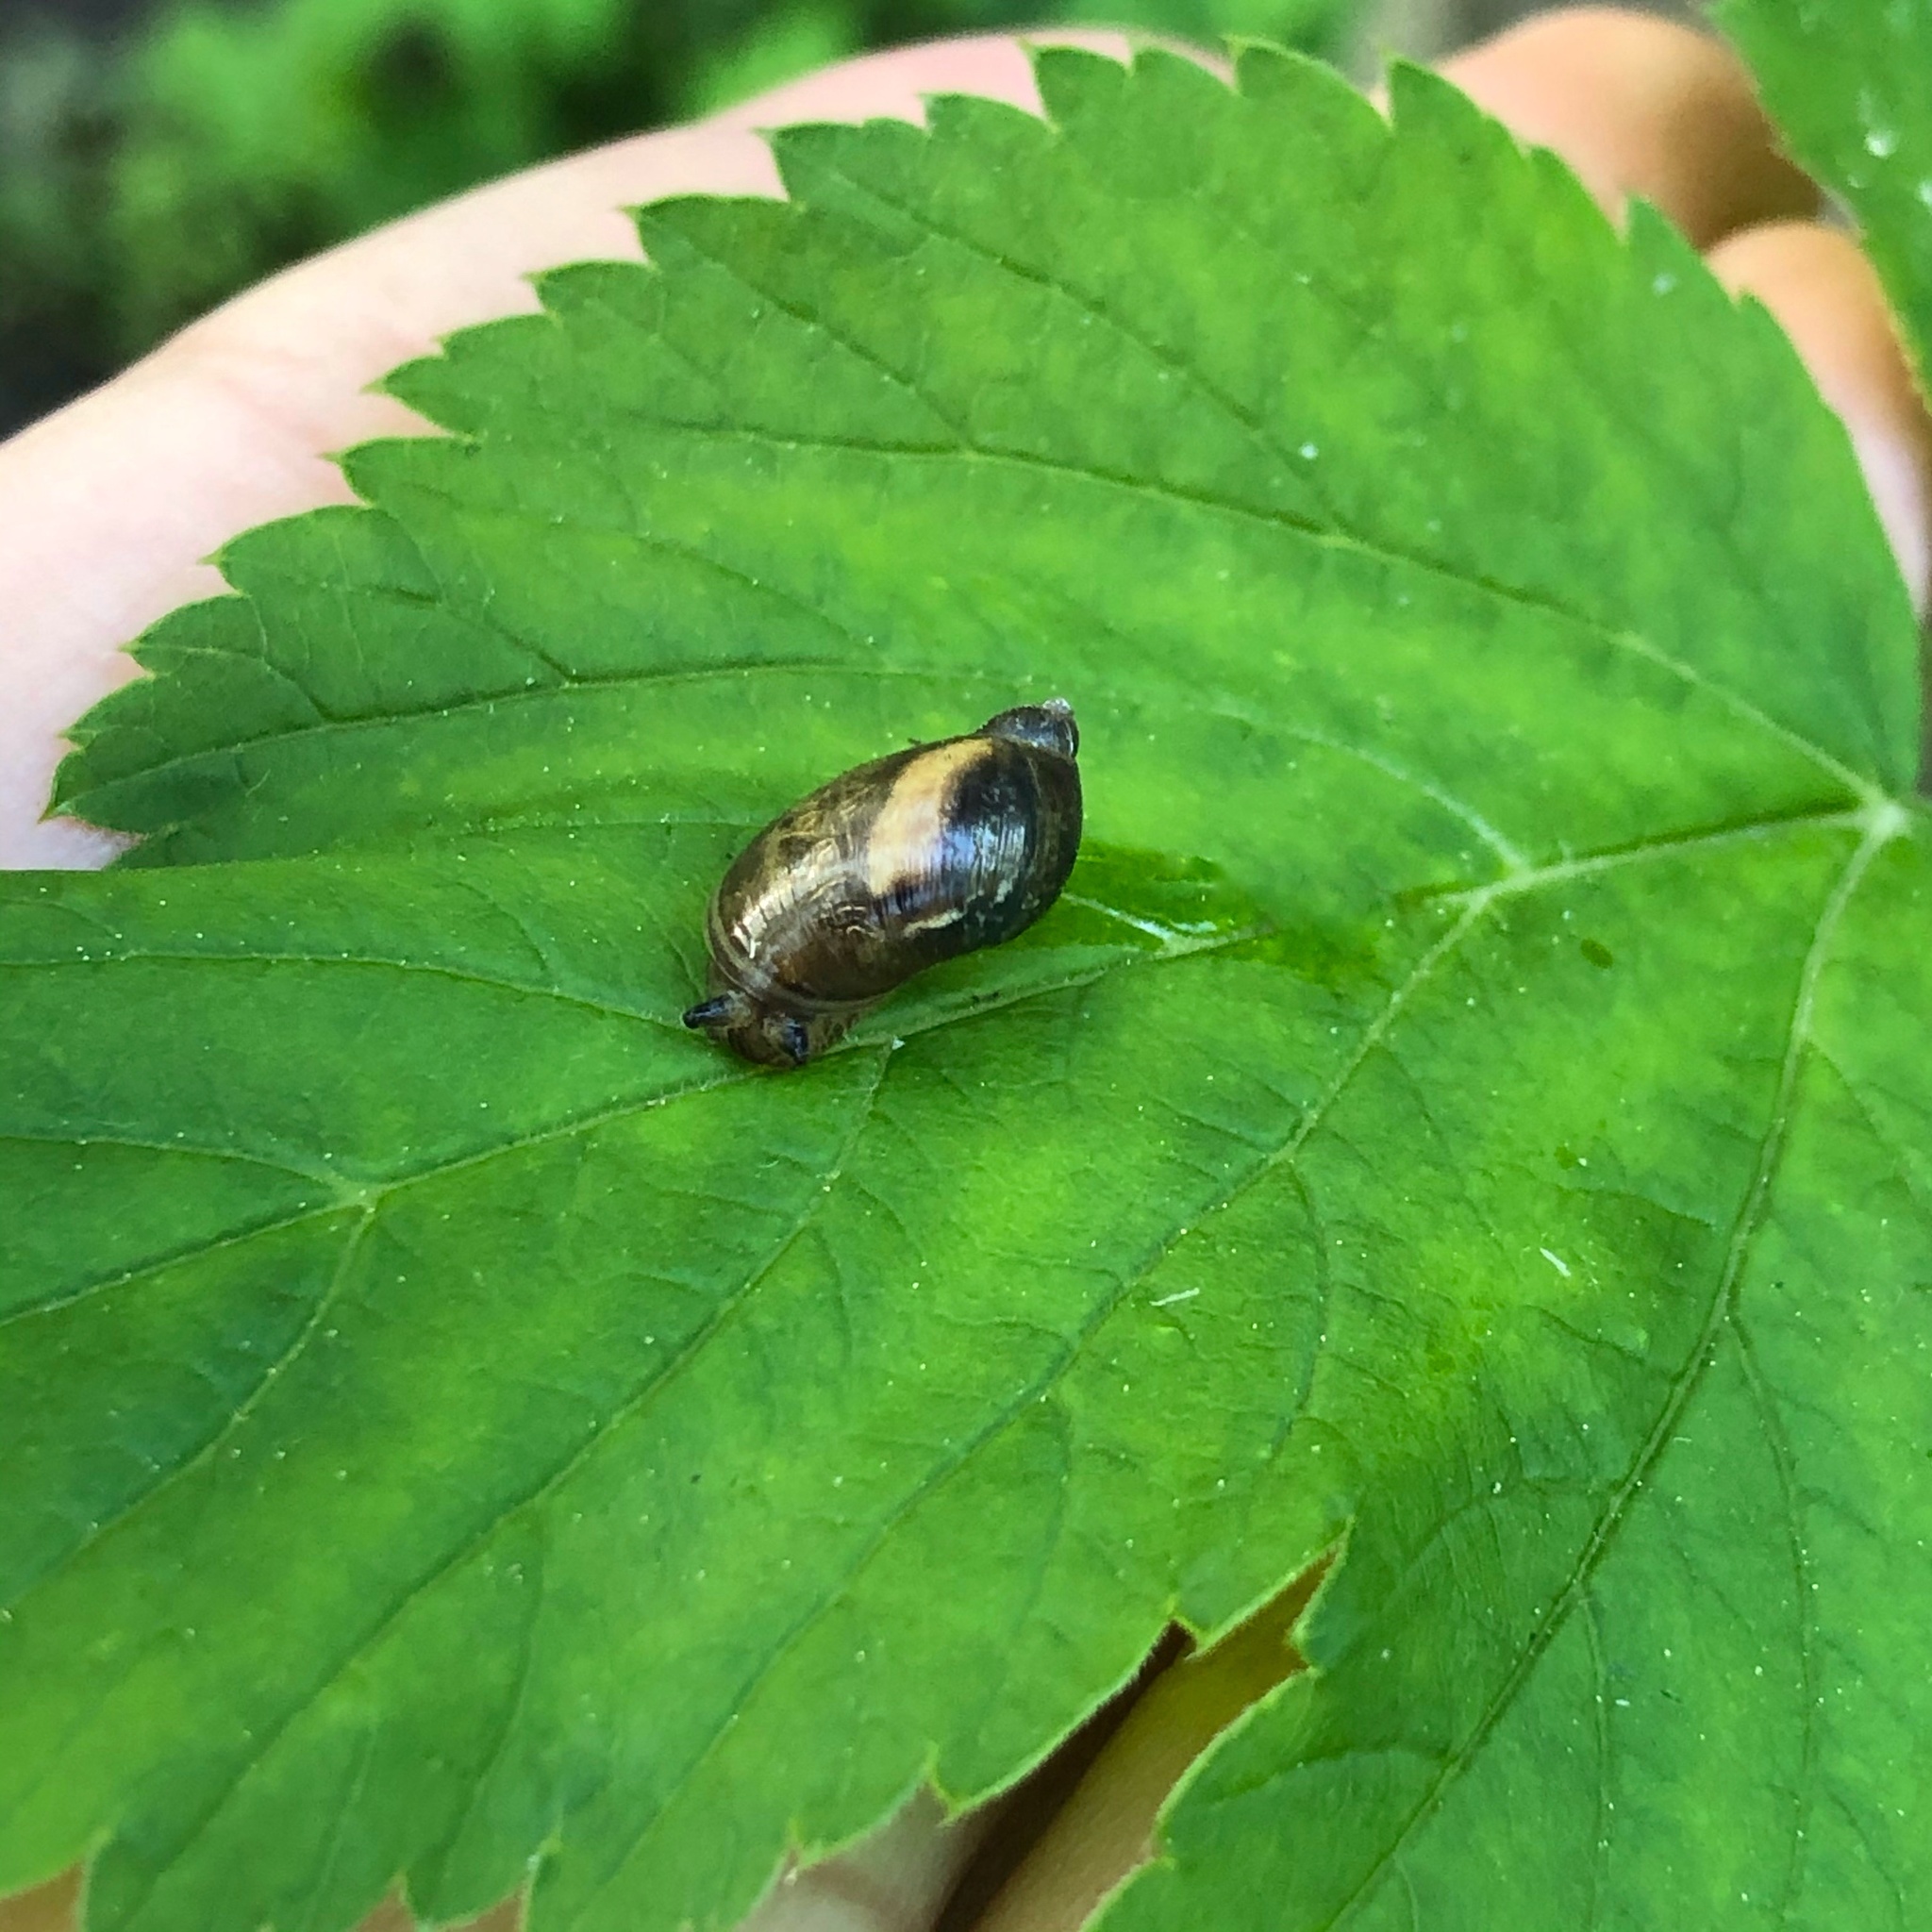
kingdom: Animalia
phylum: Mollusca
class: Gastropoda
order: Stylommatophora
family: Succineidae
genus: Succinea
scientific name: Succinea putris
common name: European ambersnail
